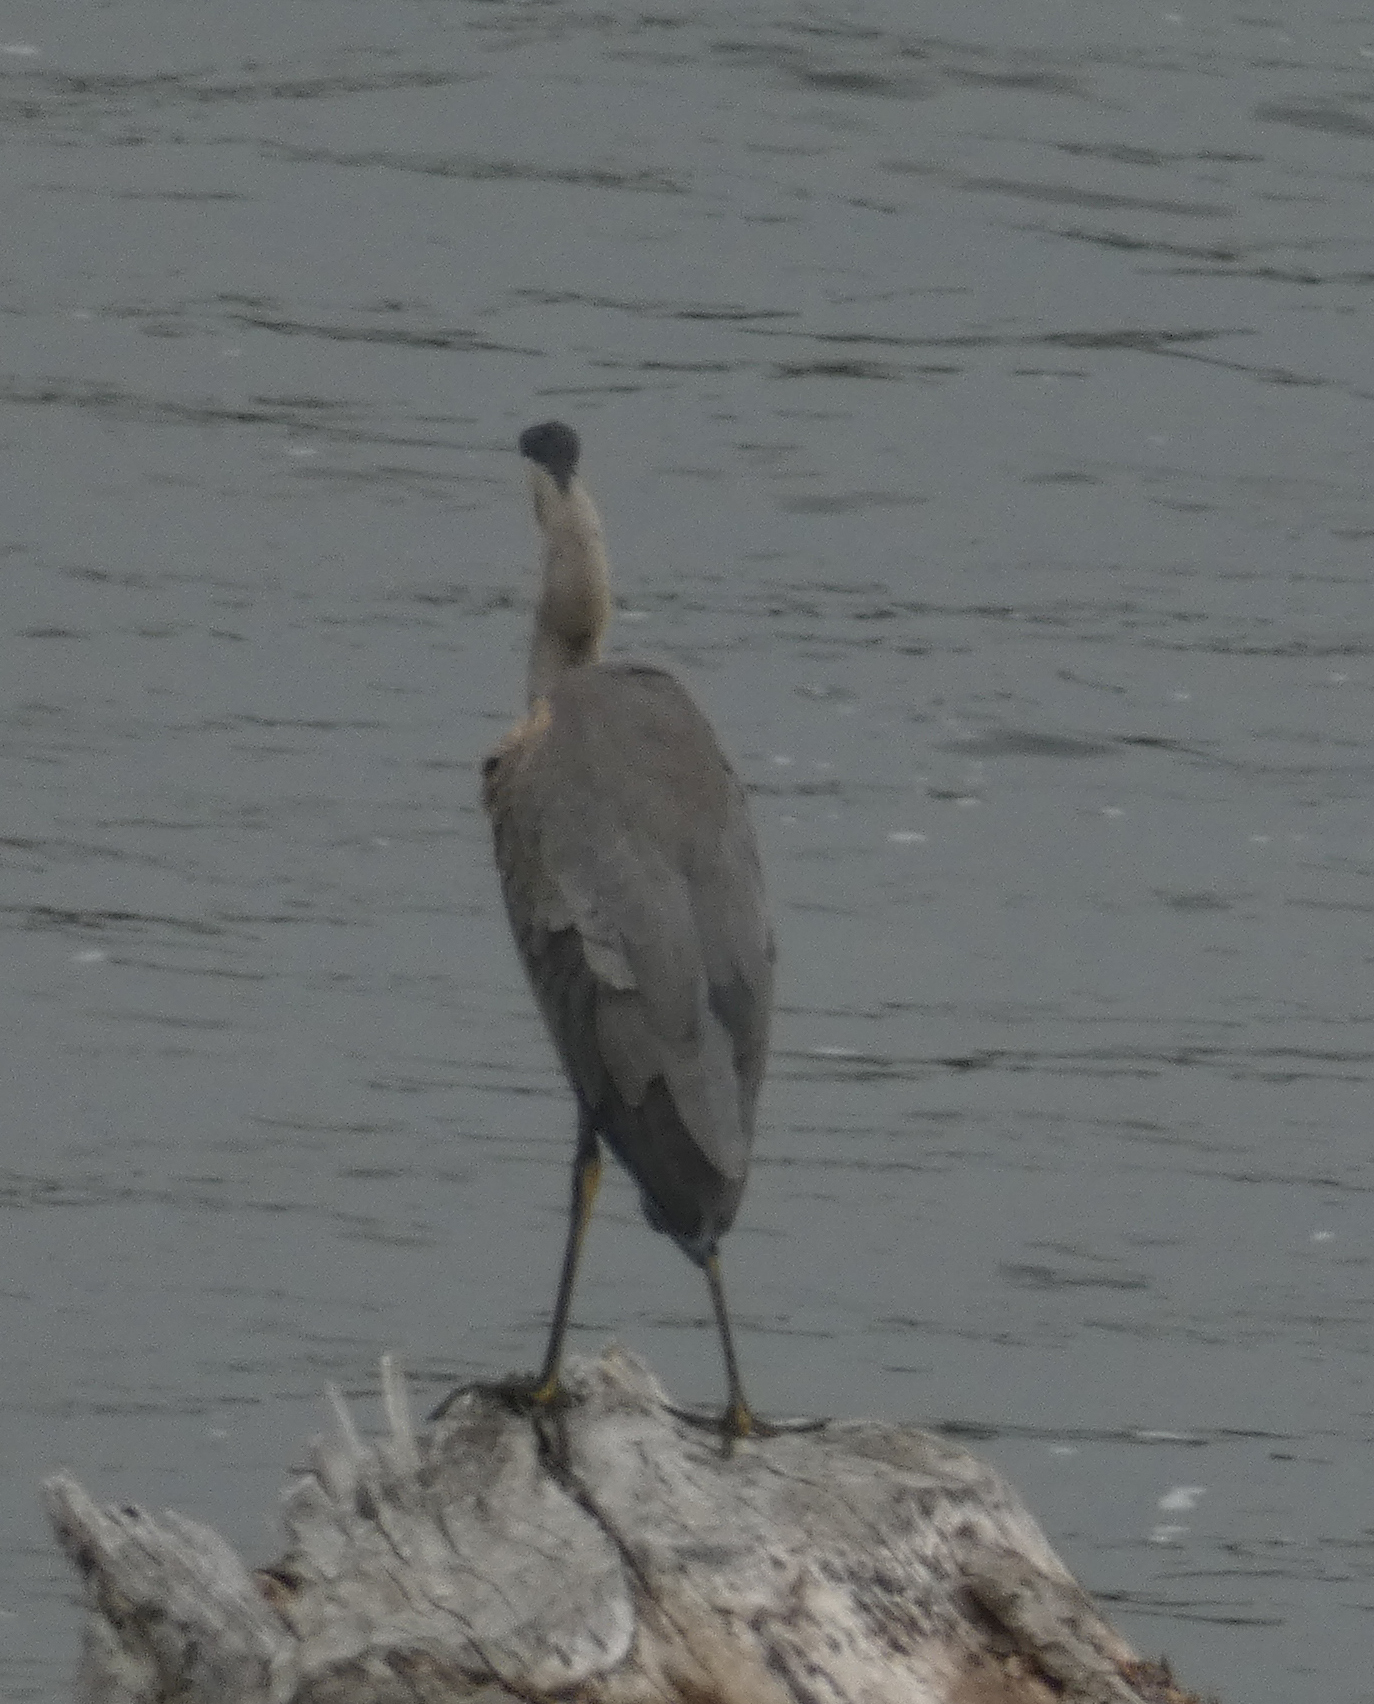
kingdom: Animalia
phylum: Chordata
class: Aves
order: Pelecaniformes
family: Ardeidae
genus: Ardea
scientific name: Ardea herodias
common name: Great blue heron
